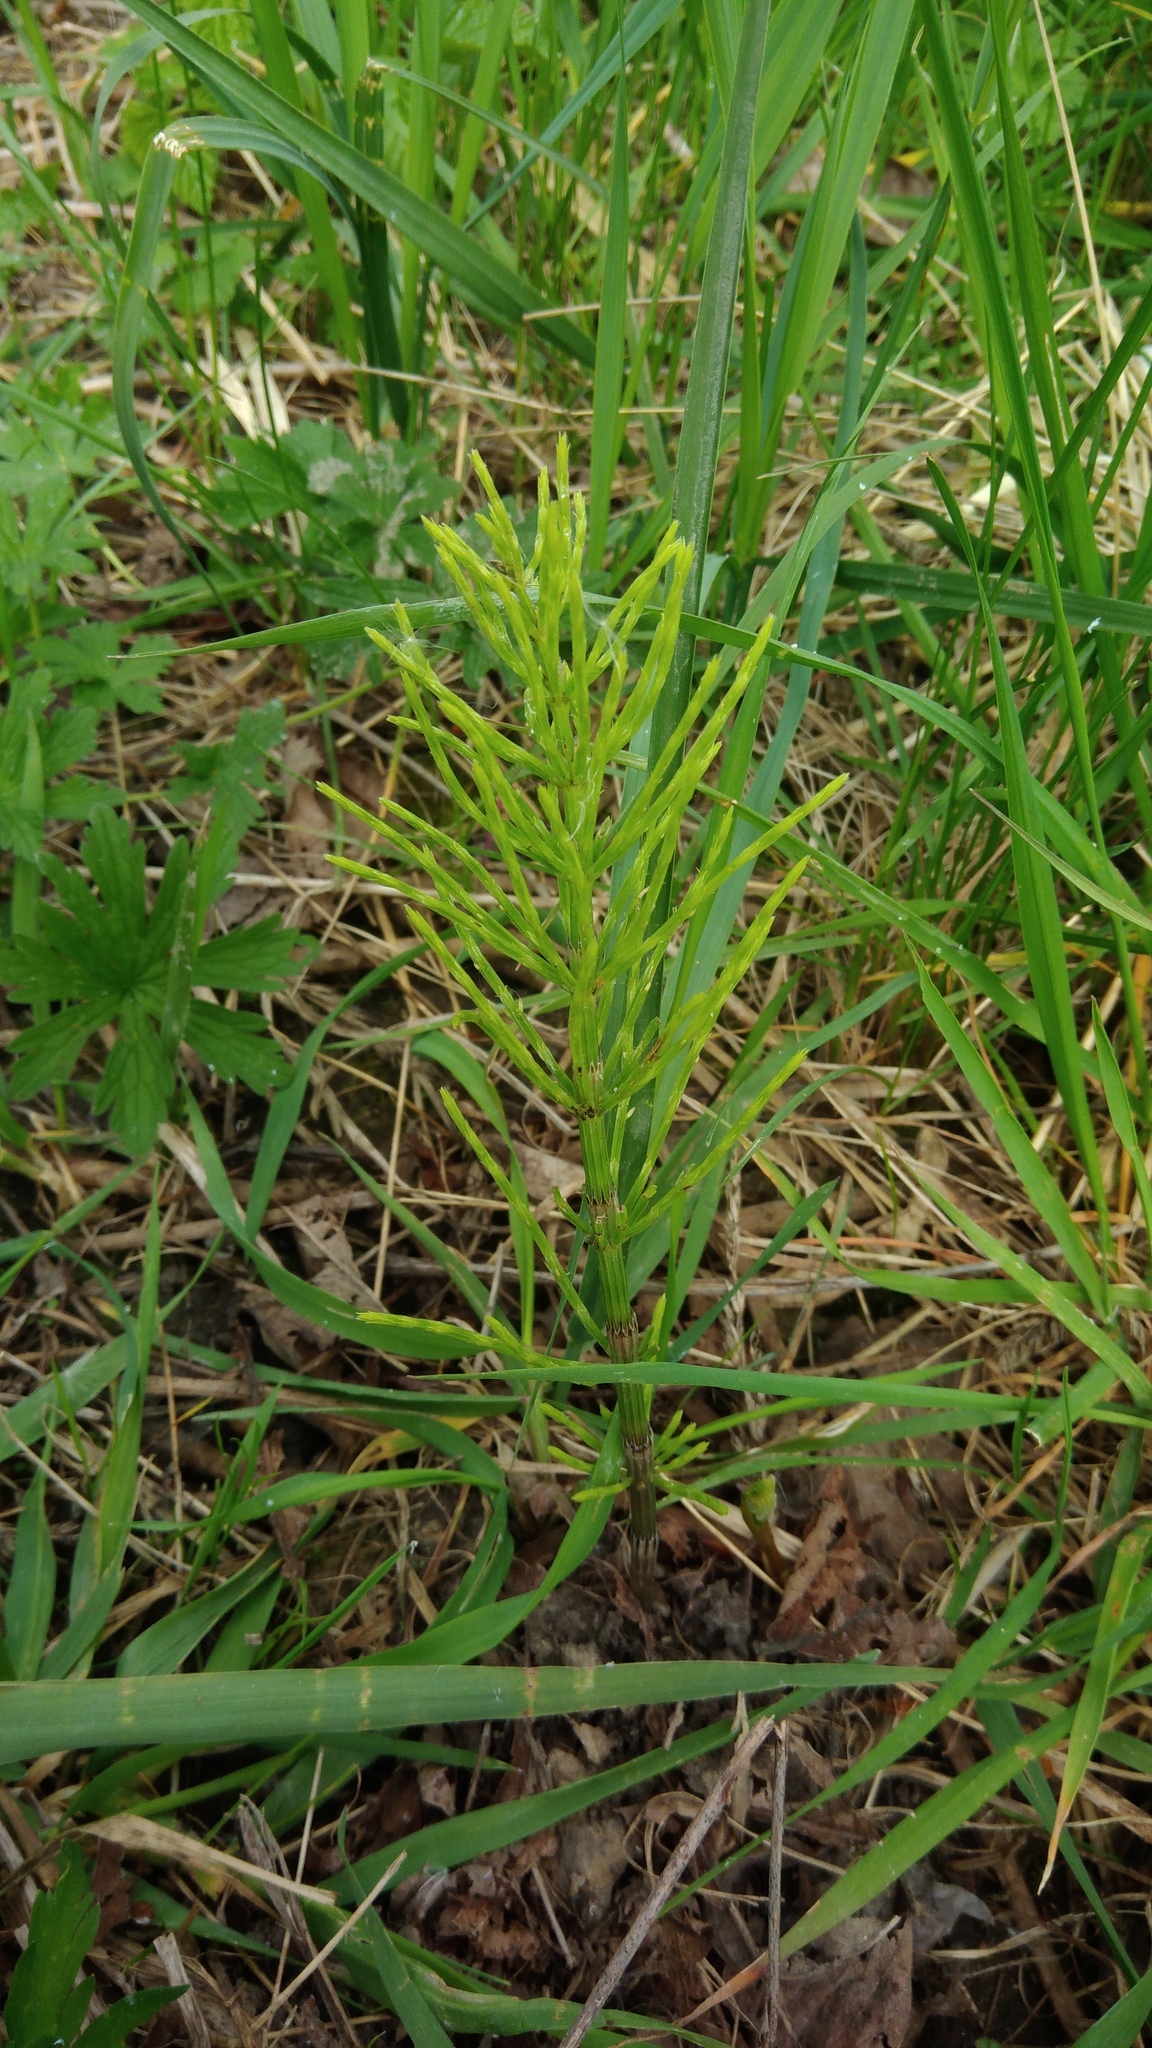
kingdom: Plantae
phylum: Tracheophyta
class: Polypodiopsida
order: Equisetales
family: Equisetaceae
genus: Equisetum
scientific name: Equisetum arvense
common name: Field horsetail
